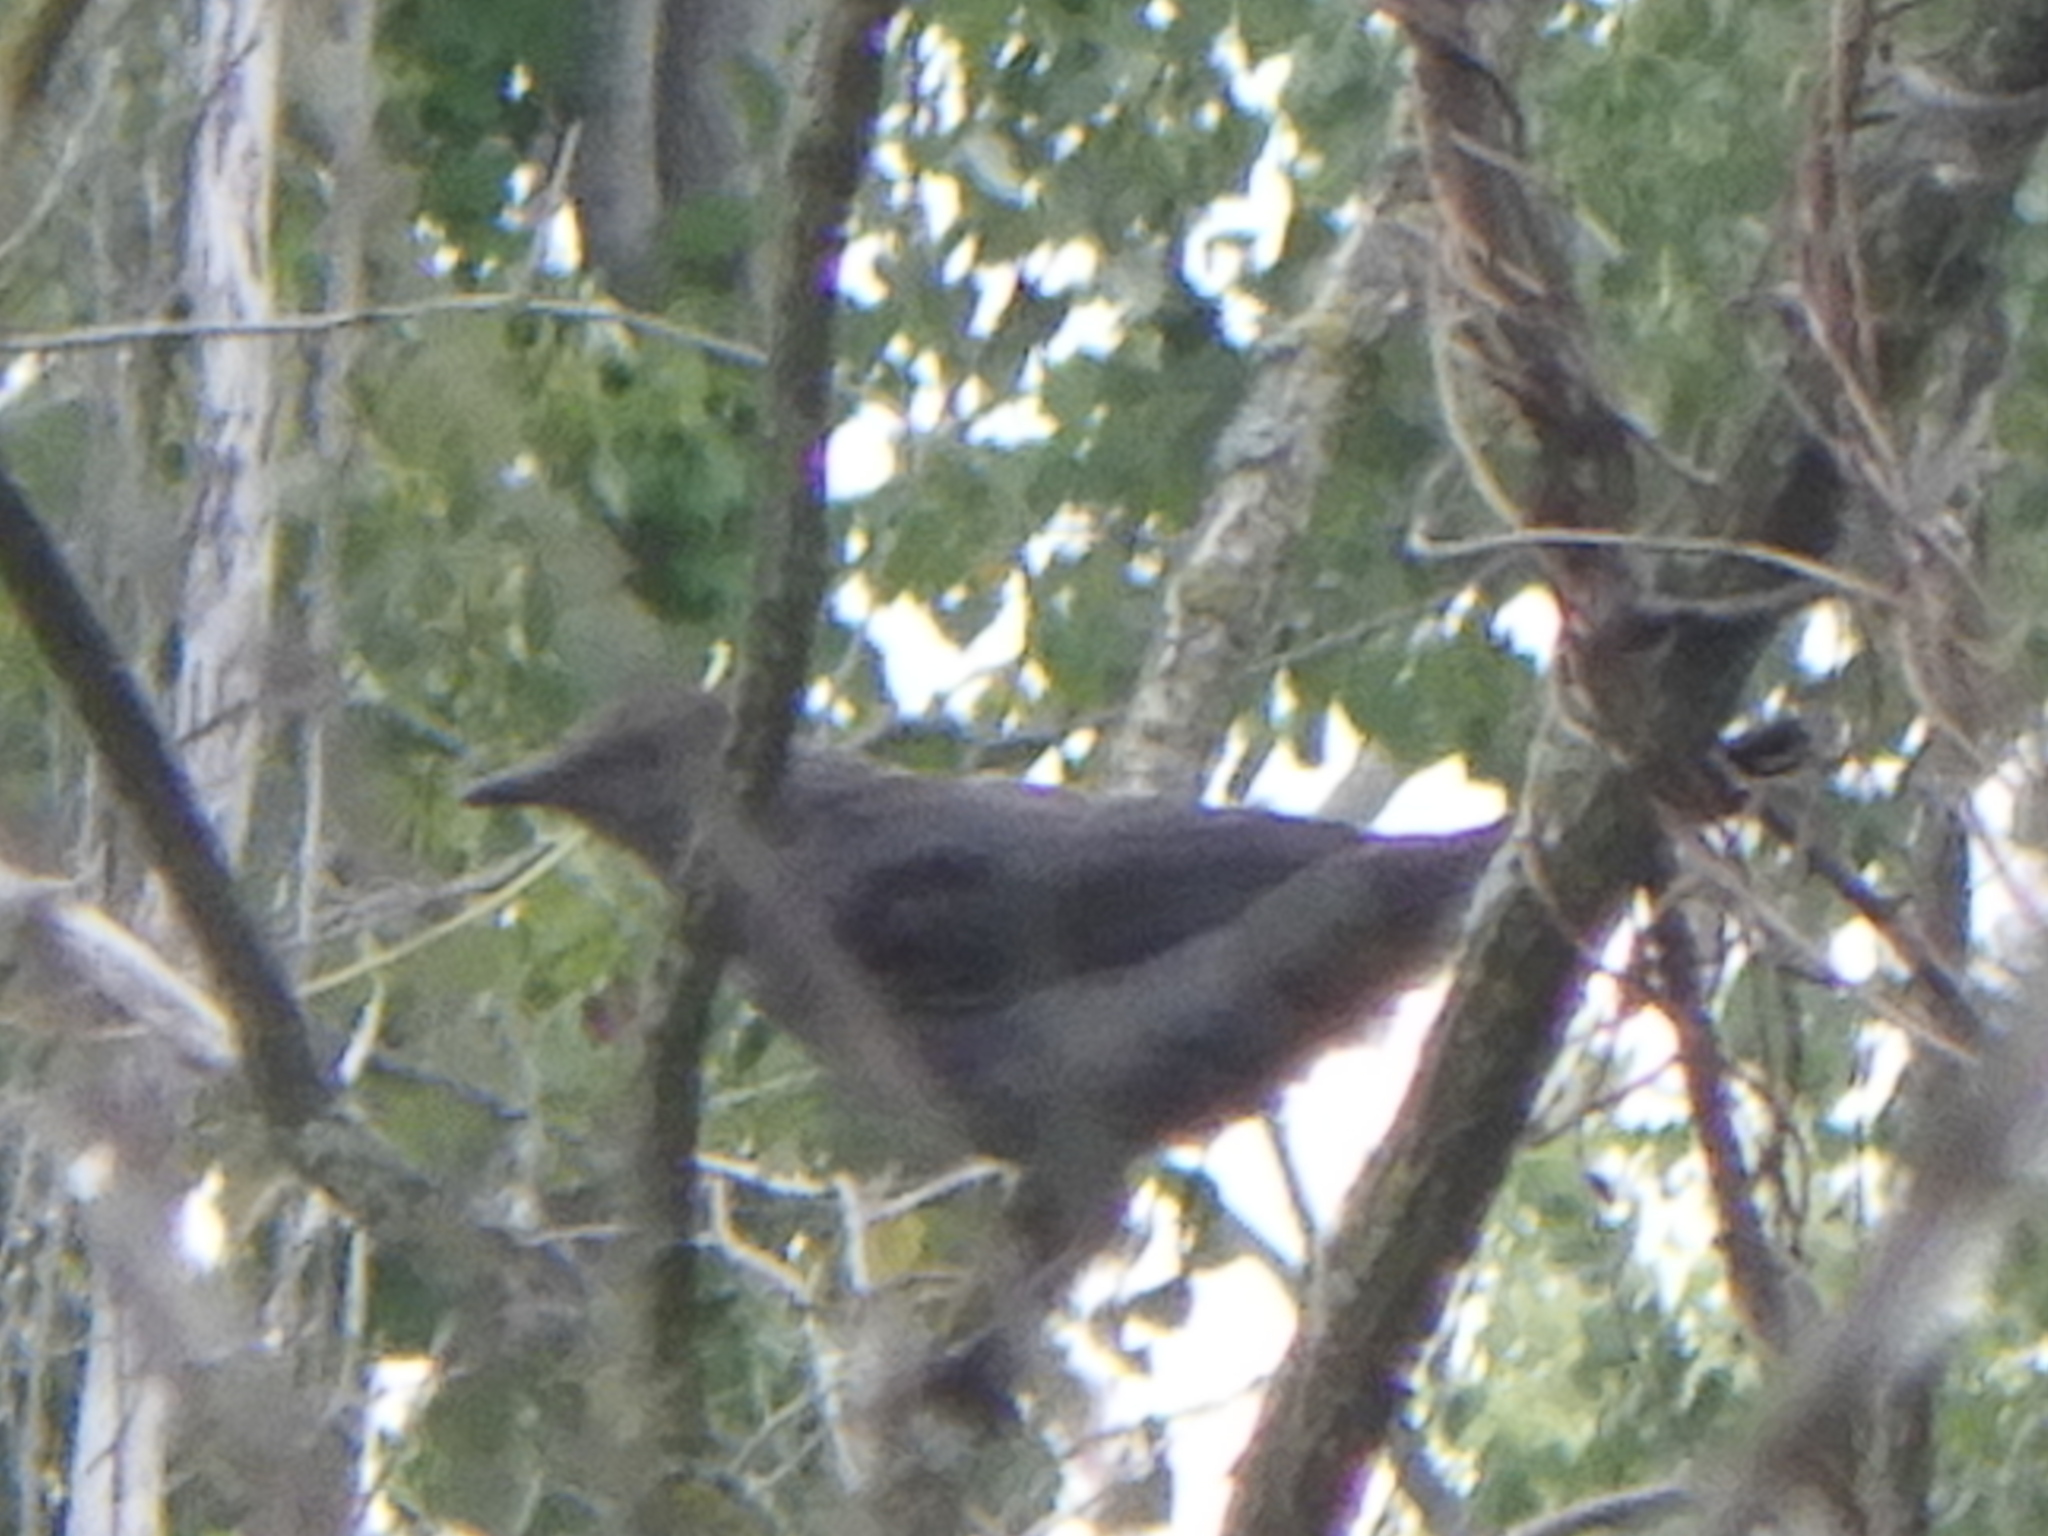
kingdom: Animalia
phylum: Chordata
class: Aves
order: Passeriformes
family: Mimidae
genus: Dumetella
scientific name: Dumetella carolinensis
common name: Gray catbird
